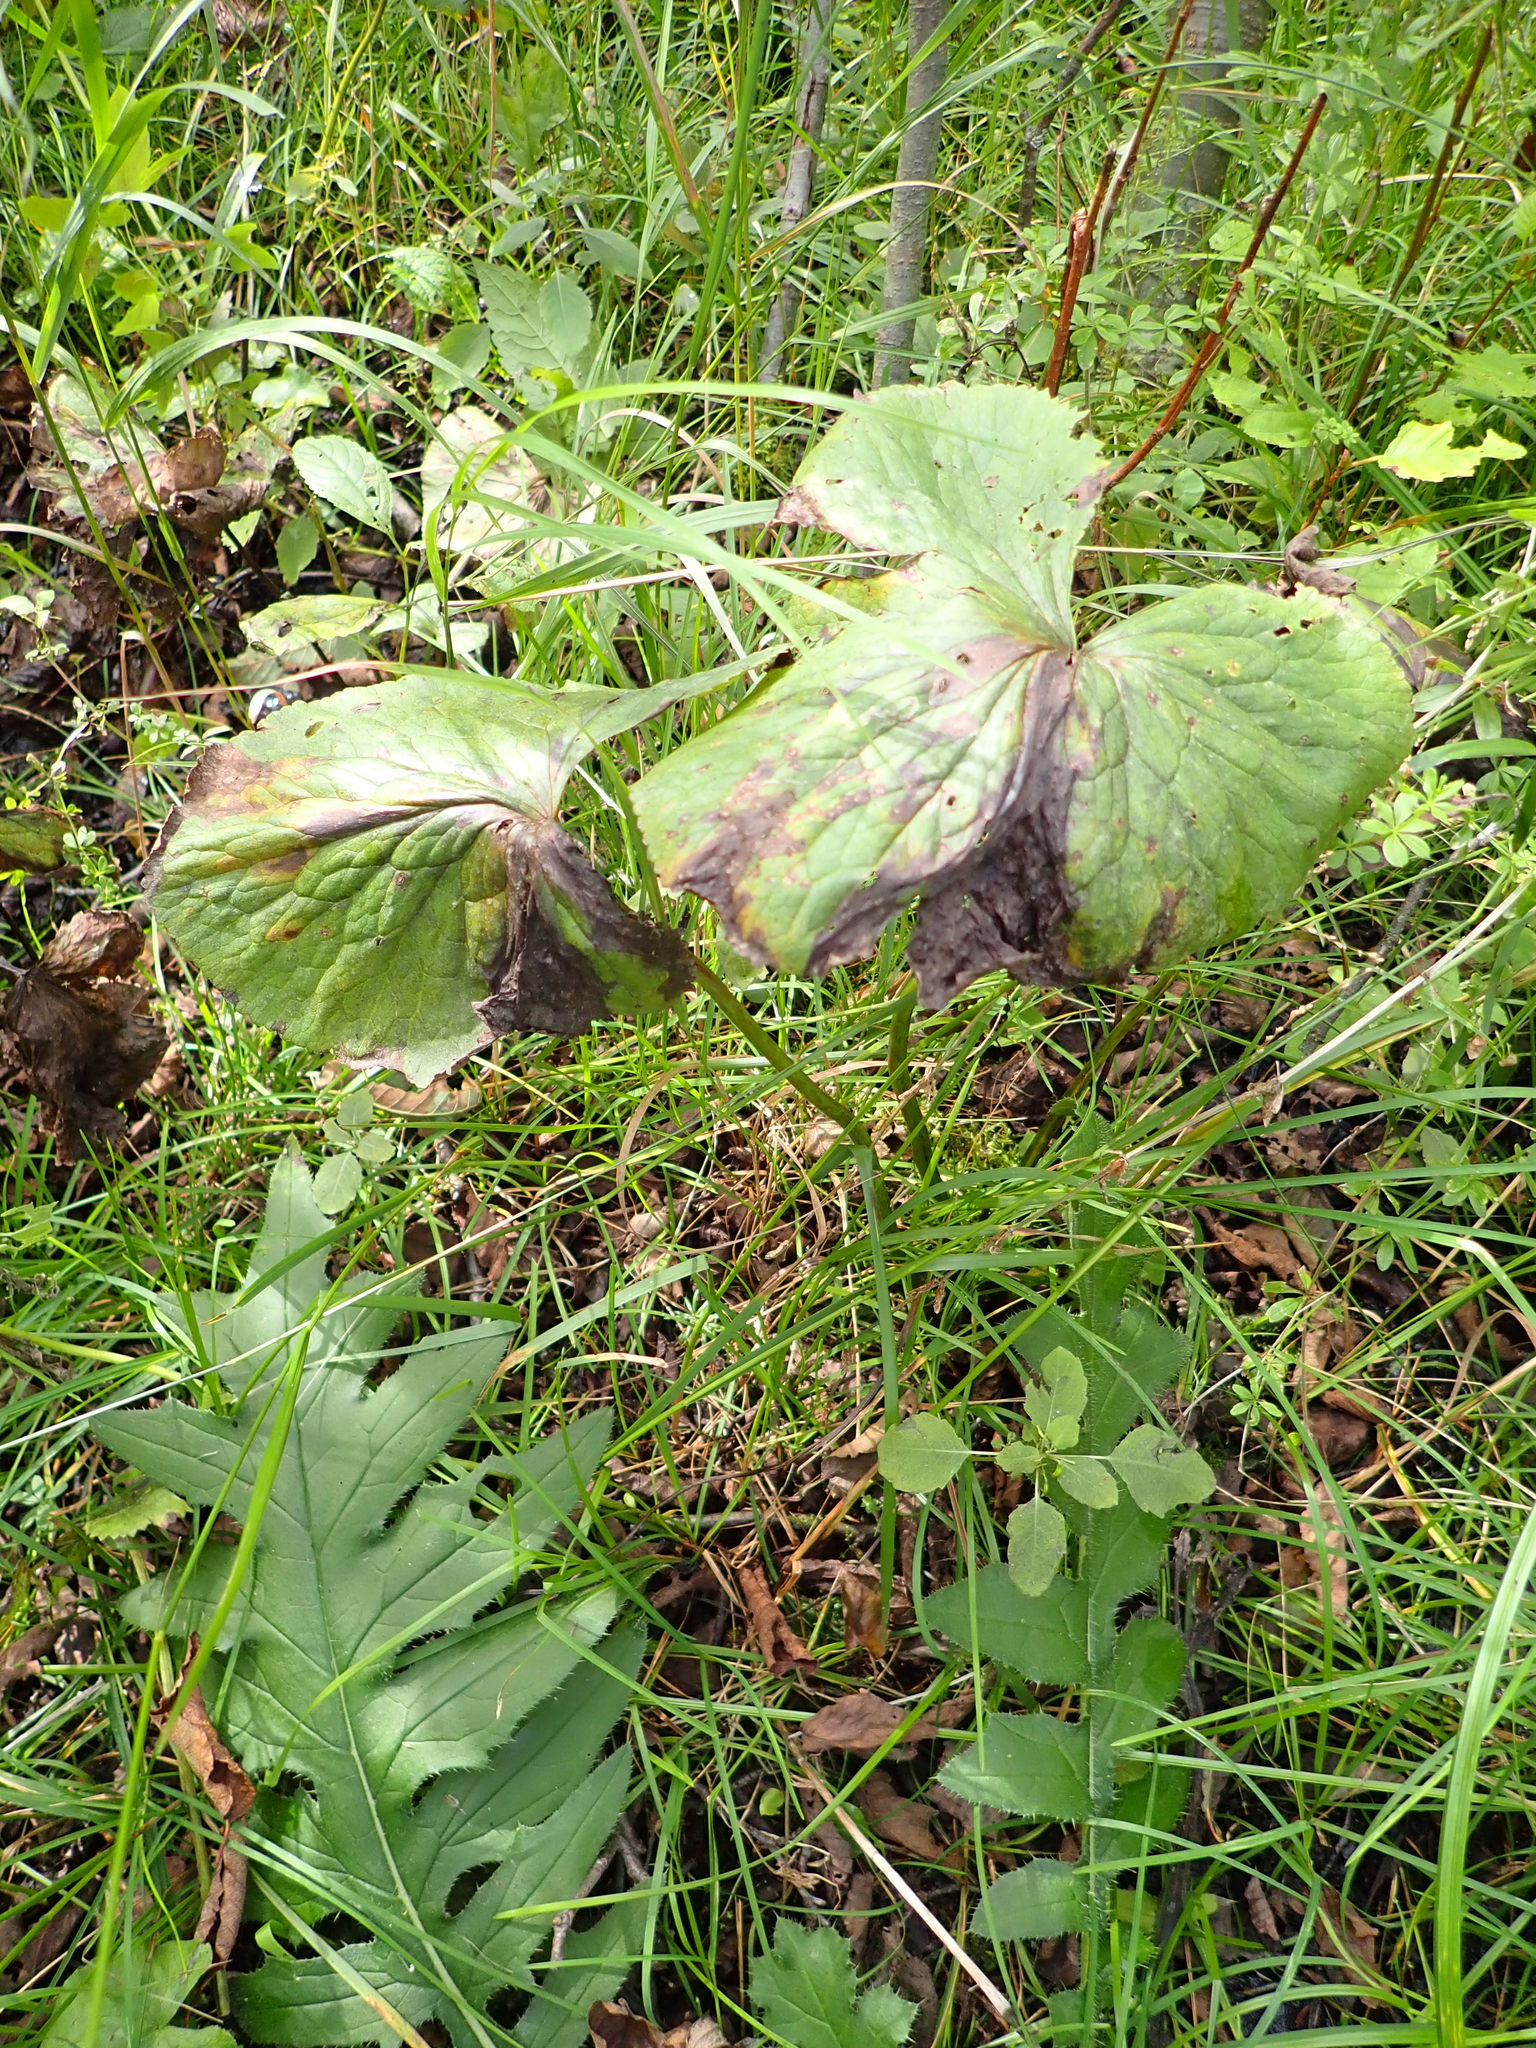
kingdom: Plantae
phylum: Tracheophyta
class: Magnoliopsida
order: Ranunculales
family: Ranunculaceae
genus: Caltha
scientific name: Caltha palustris
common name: Marsh marigold
